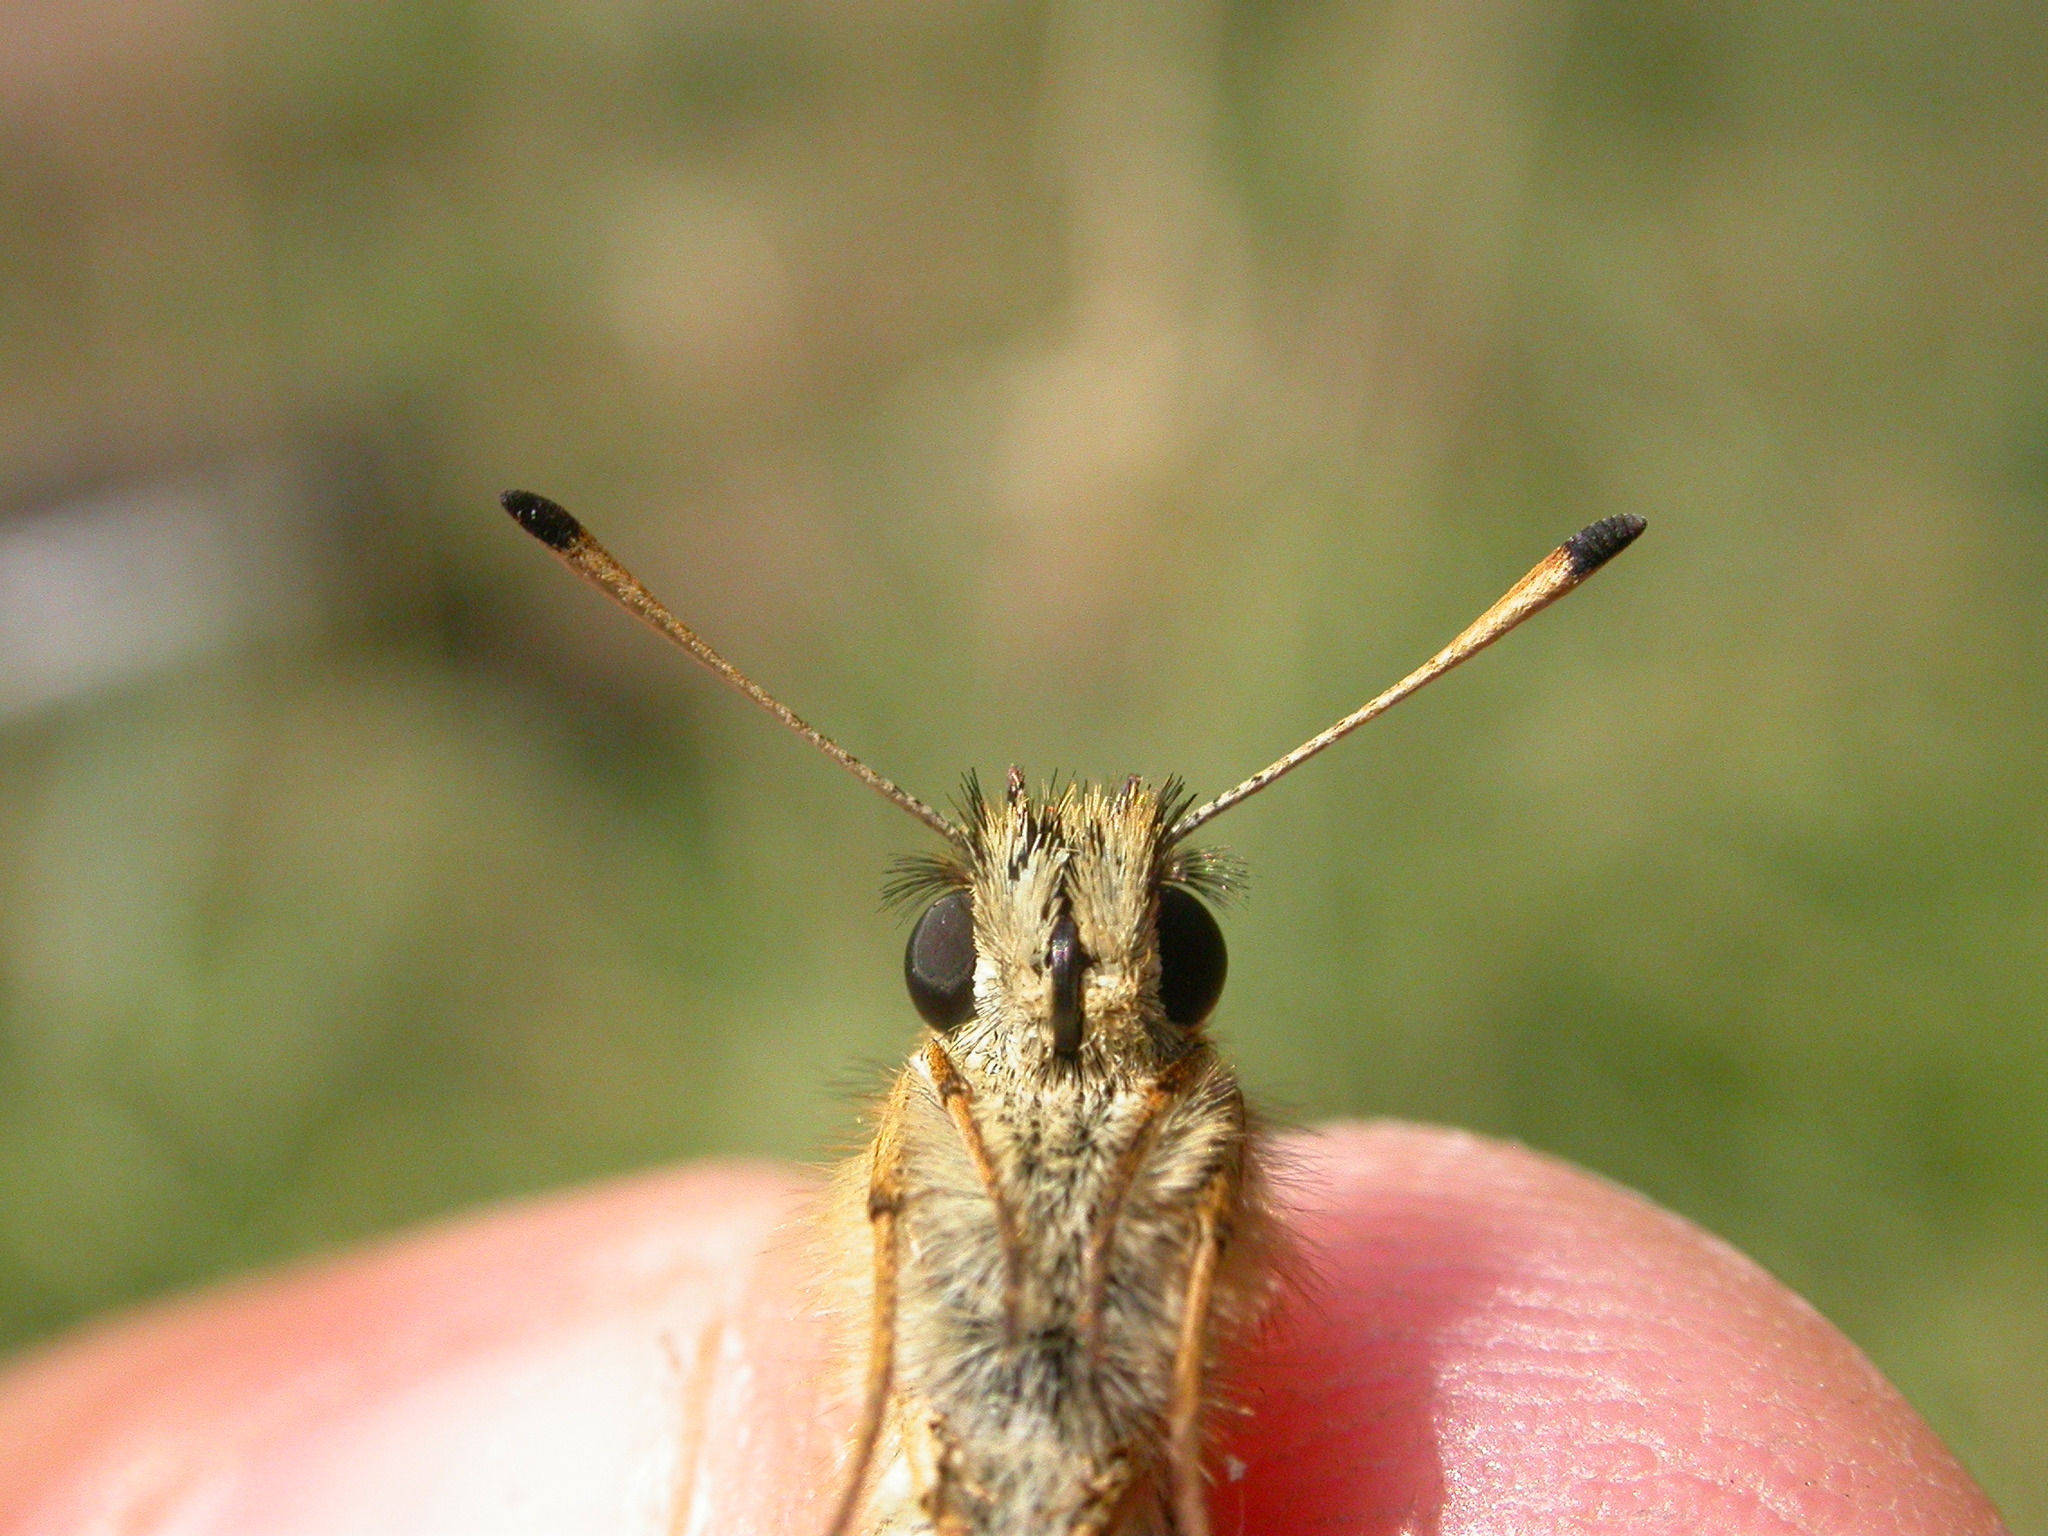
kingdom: Animalia
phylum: Arthropoda
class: Insecta
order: Lepidoptera
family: Hesperiidae
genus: Thymelicus
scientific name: Thymelicus lineola
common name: Essex skipper
